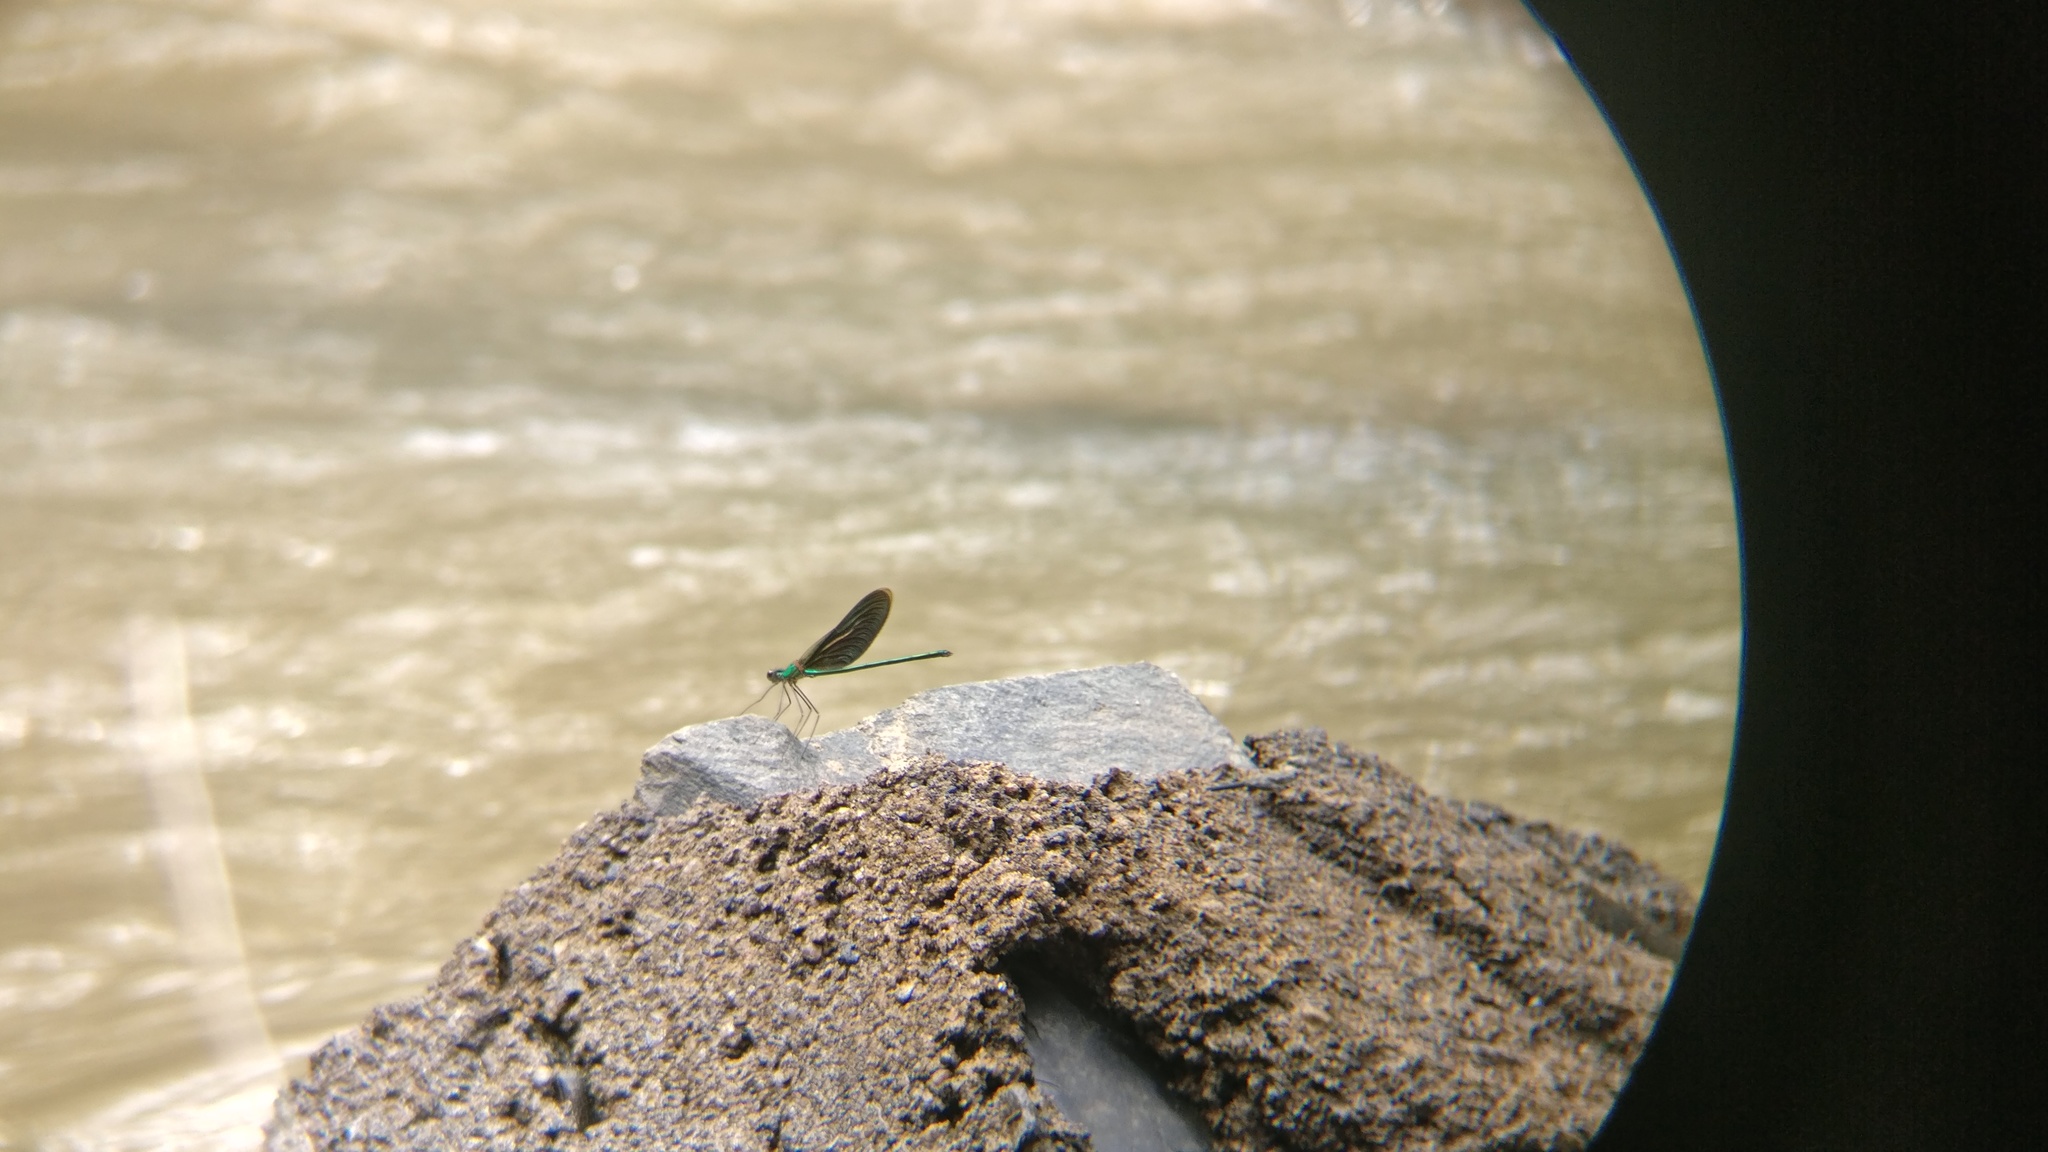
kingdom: Animalia
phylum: Arthropoda
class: Insecta
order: Odonata
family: Calopterygidae
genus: Neurobasis
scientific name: Neurobasis chinensis
